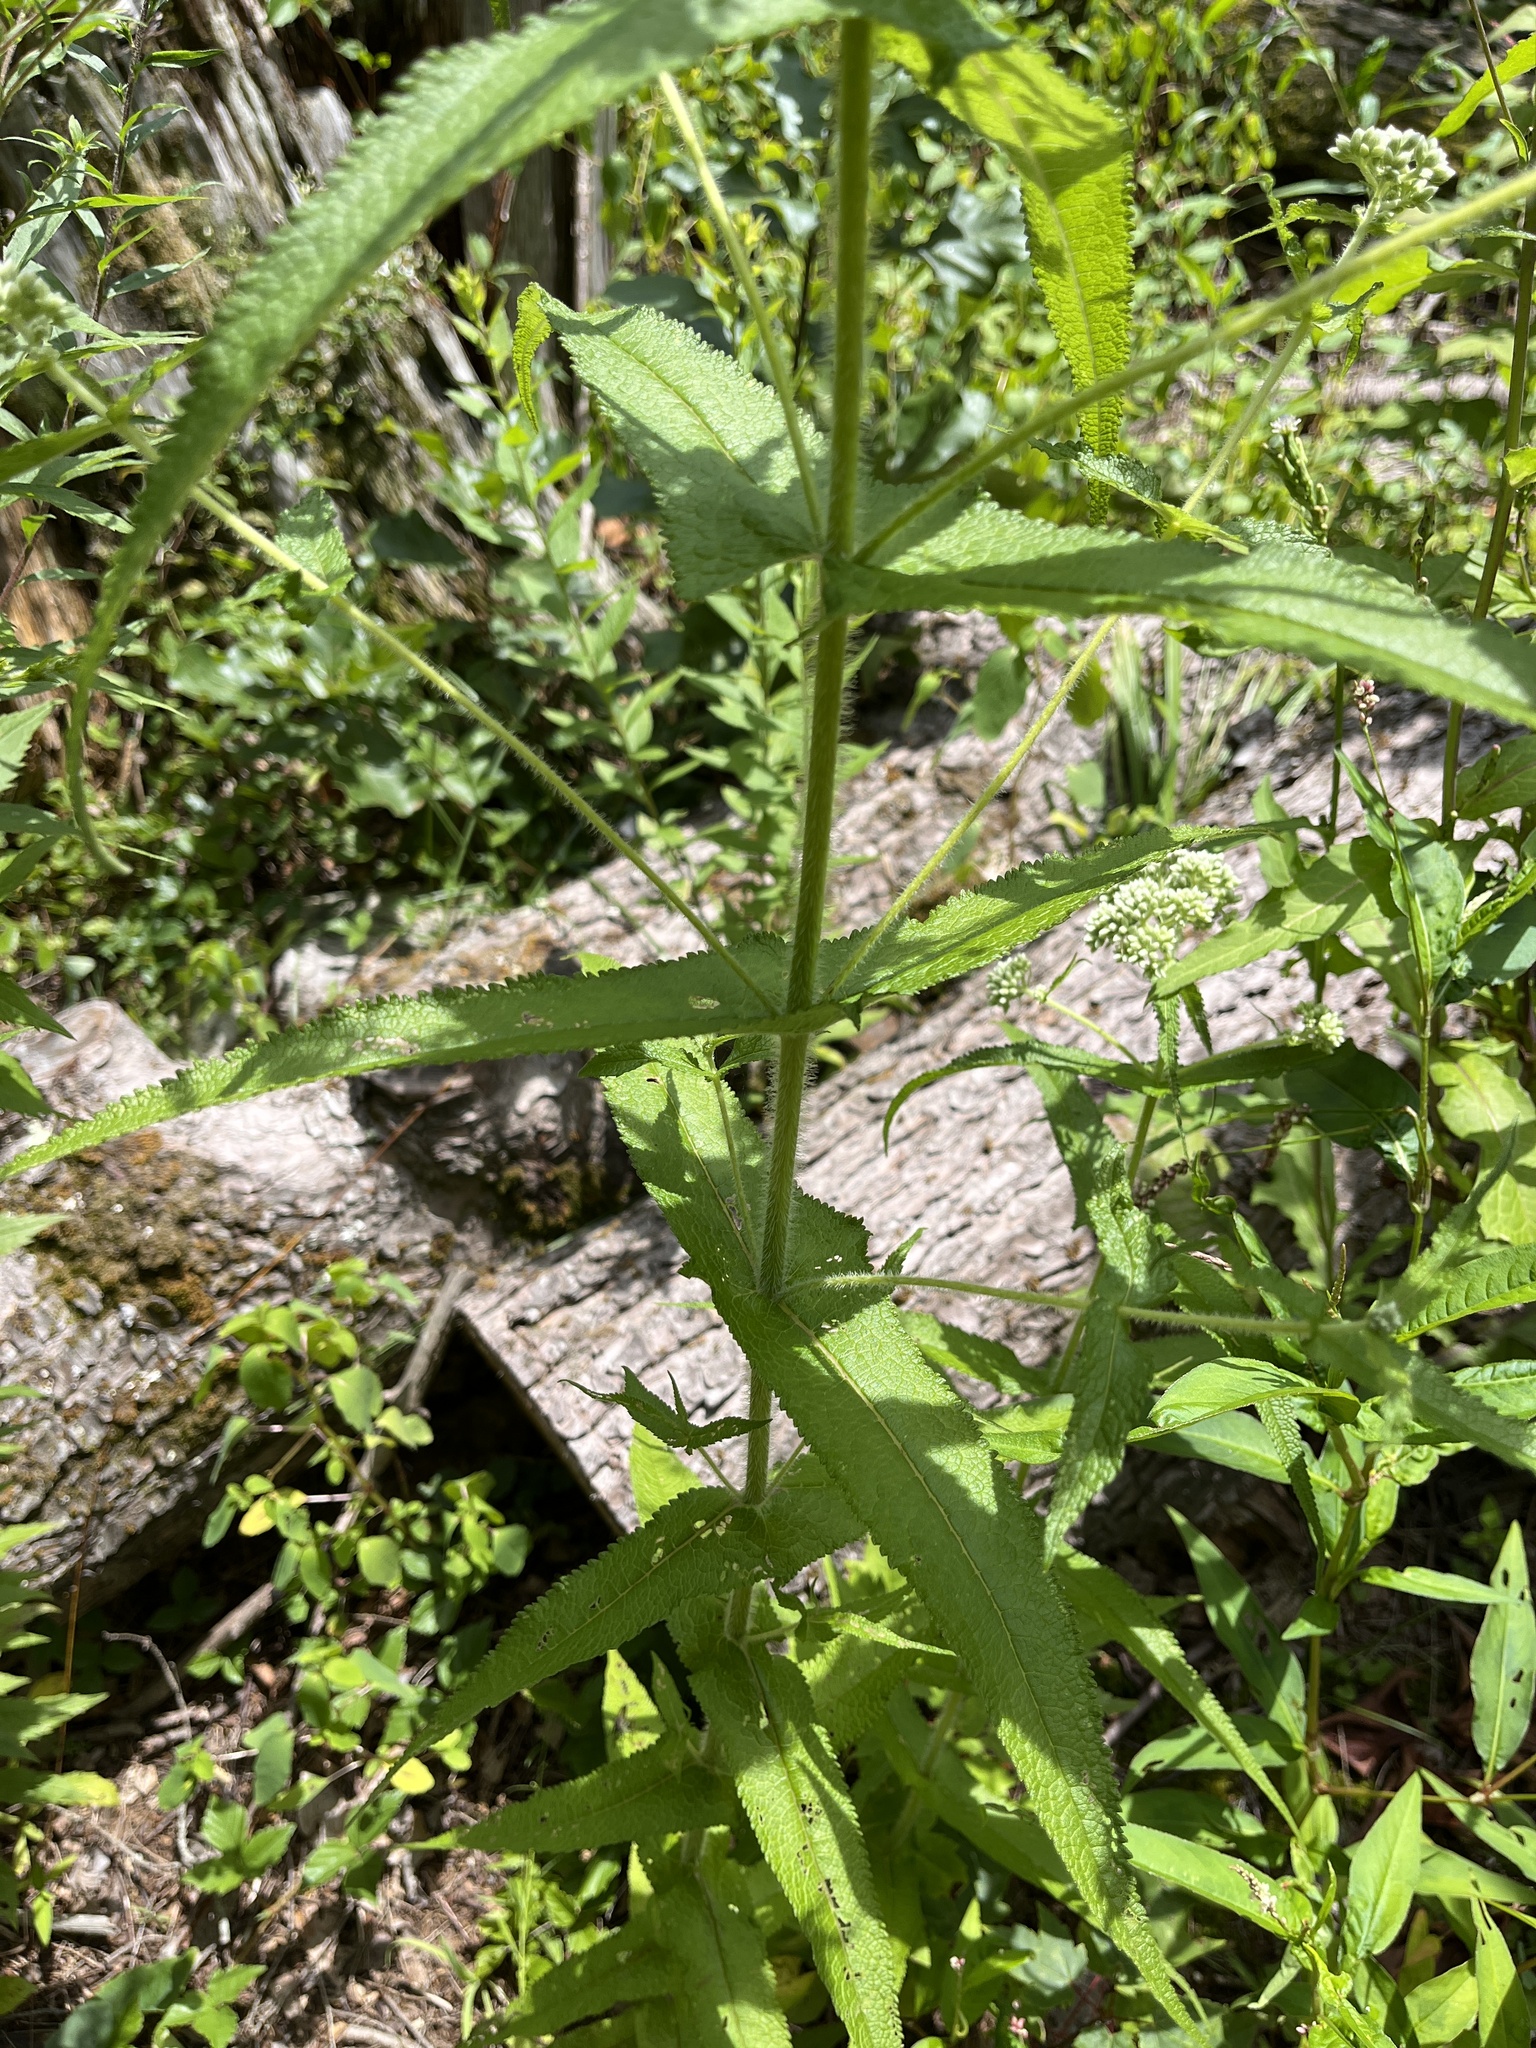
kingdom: Plantae
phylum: Tracheophyta
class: Magnoliopsida
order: Asterales
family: Asteraceae
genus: Eupatorium
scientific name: Eupatorium perfoliatum
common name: Boneset
